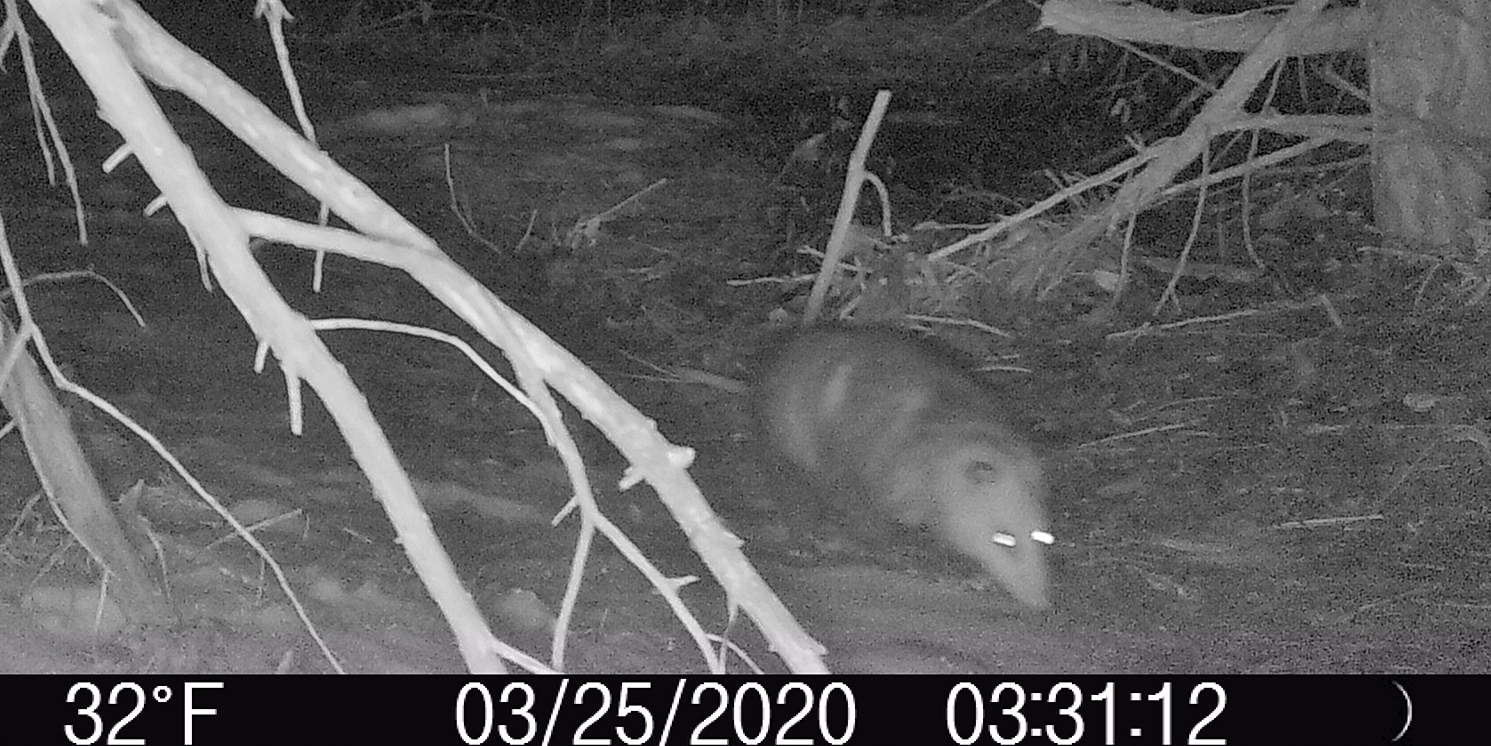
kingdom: Animalia
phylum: Chordata
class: Mammalia
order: Didelphimorphia
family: Didelphidae
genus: Didelphis
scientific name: Didelphis virginiana
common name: Virginia opossum
